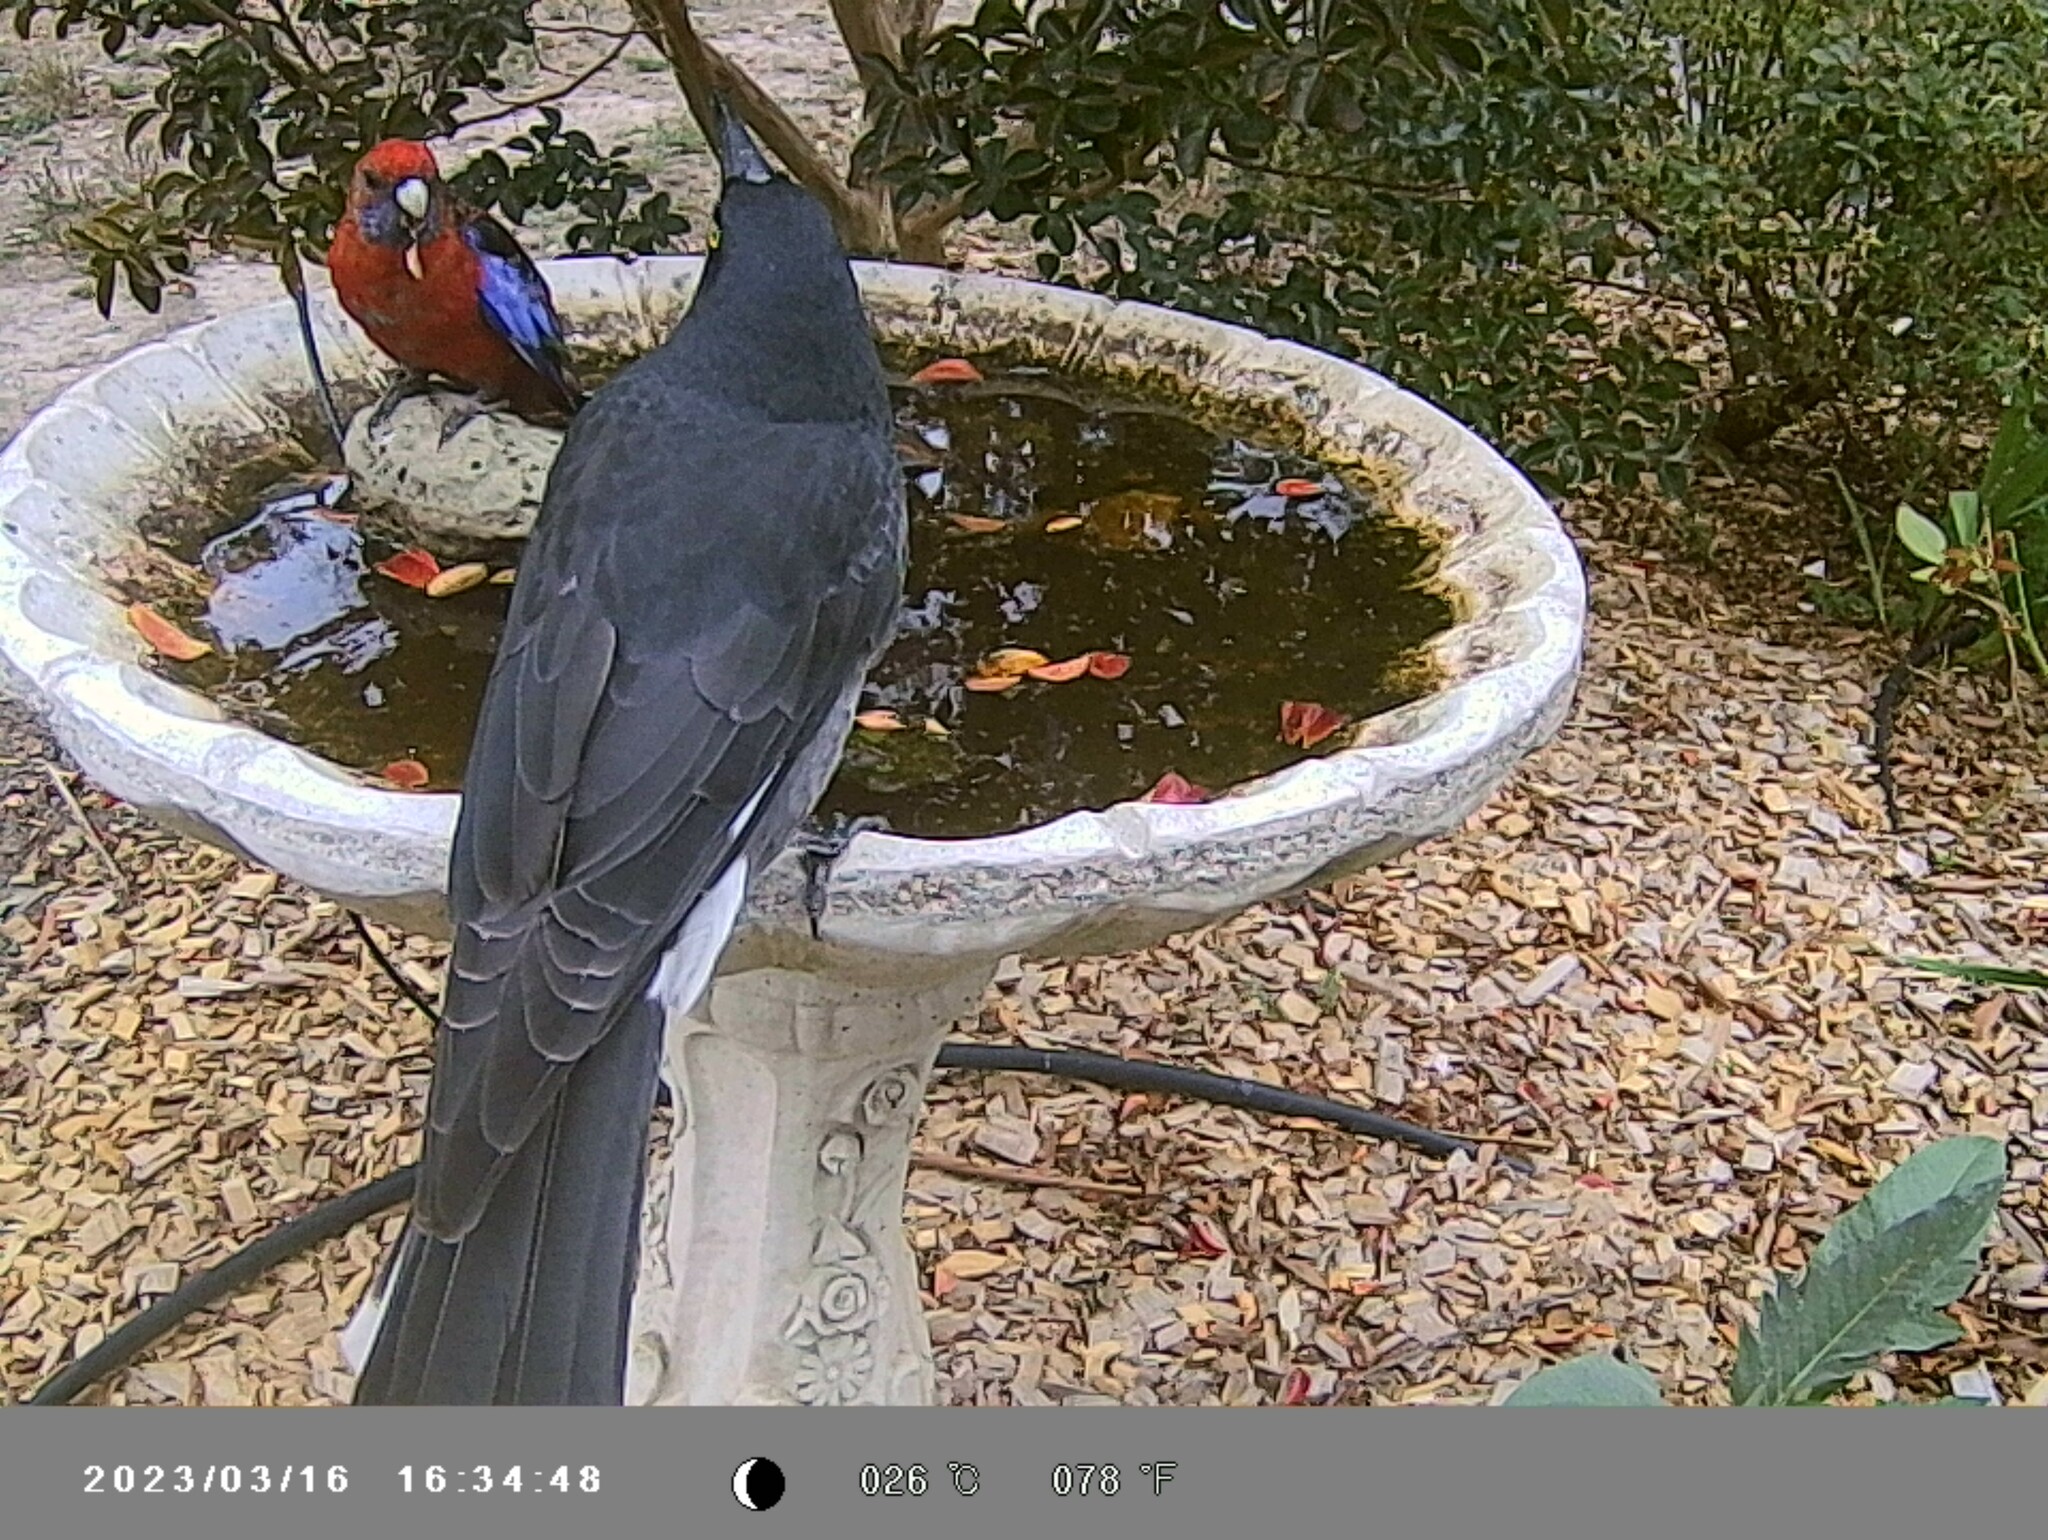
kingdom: Animalia
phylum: Chordata
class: Aves
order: Passeriformes
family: Cracticidae
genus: Strepera
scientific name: Strepera graculina
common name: Pied currawong
